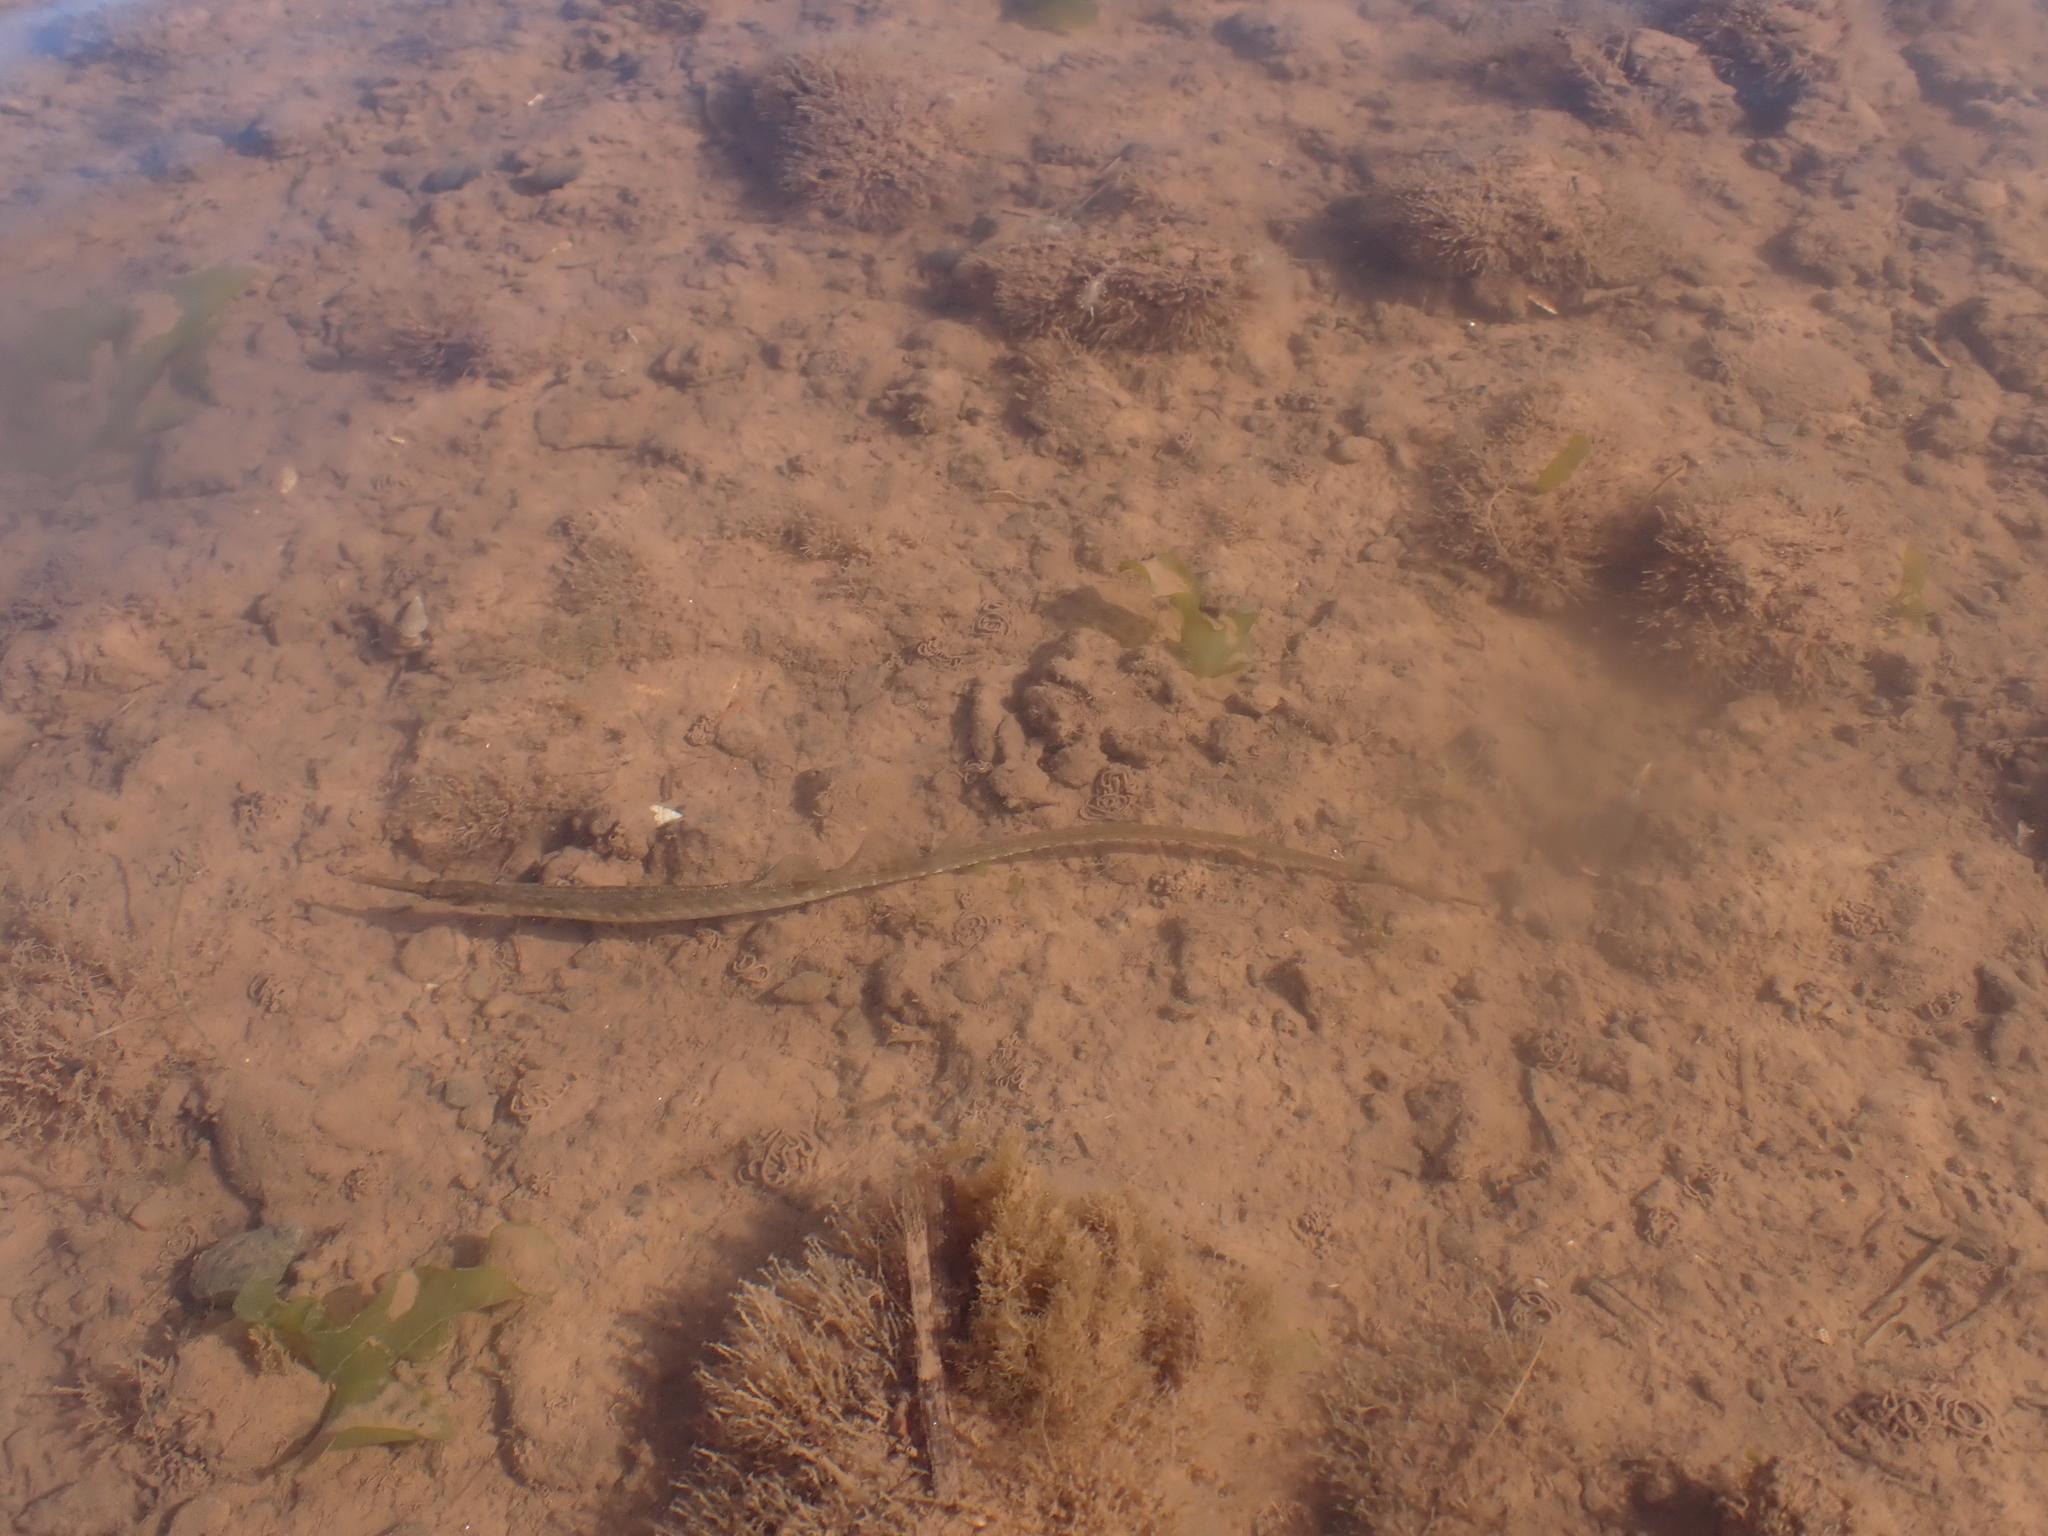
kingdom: Animalia
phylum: Chordata
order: Syngnathiformes
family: Syngnathidae
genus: Syngnathus
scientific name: Syngnathus fuscus
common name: Northern pipefish
